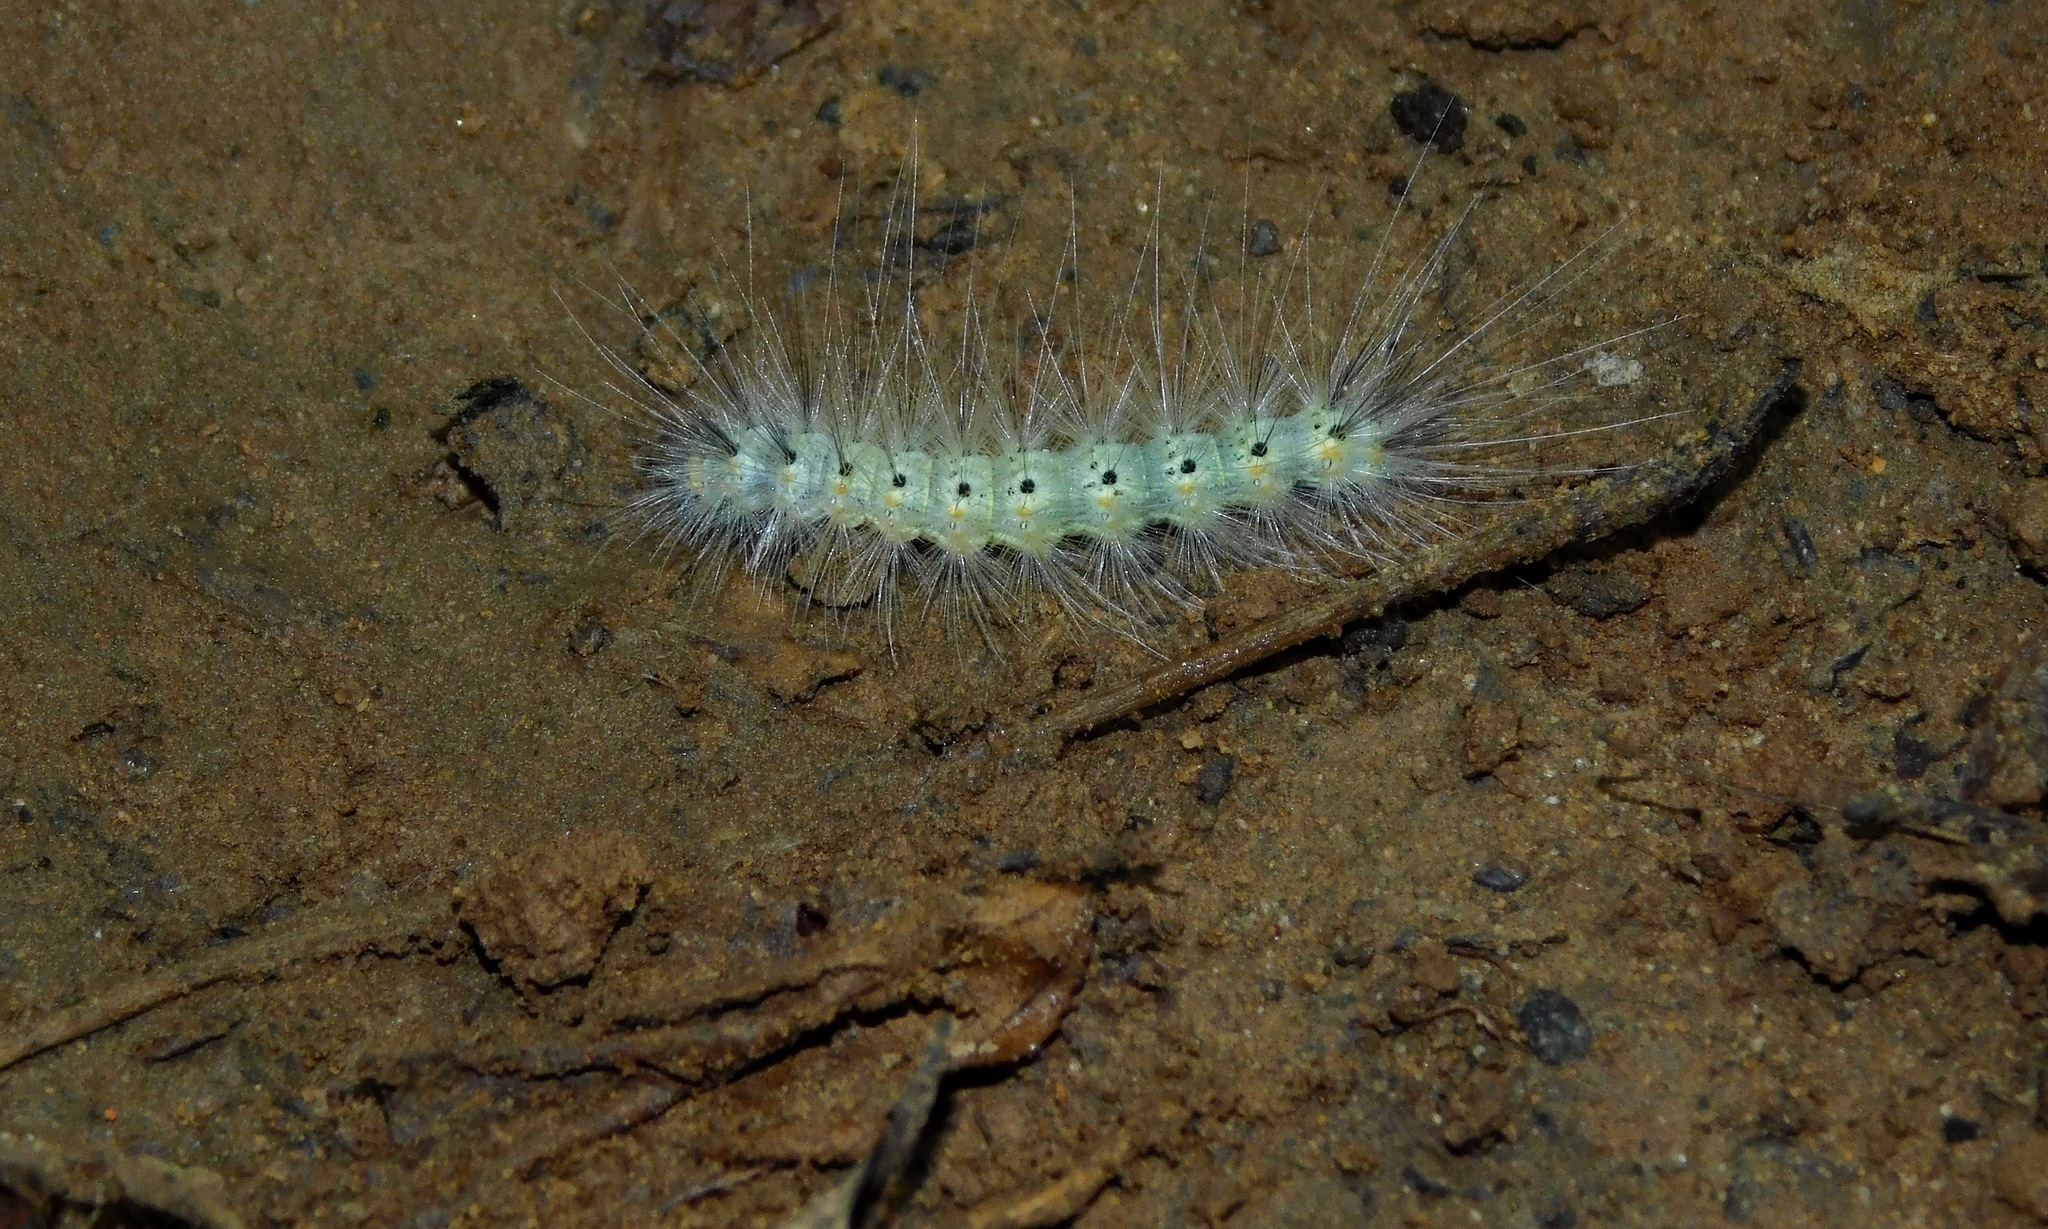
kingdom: Animalia
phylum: Arthropoda
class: Insecta
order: Lepidoptera
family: Erebidae
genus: Hyphantria
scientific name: Hyphantria cunea
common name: American white moth
